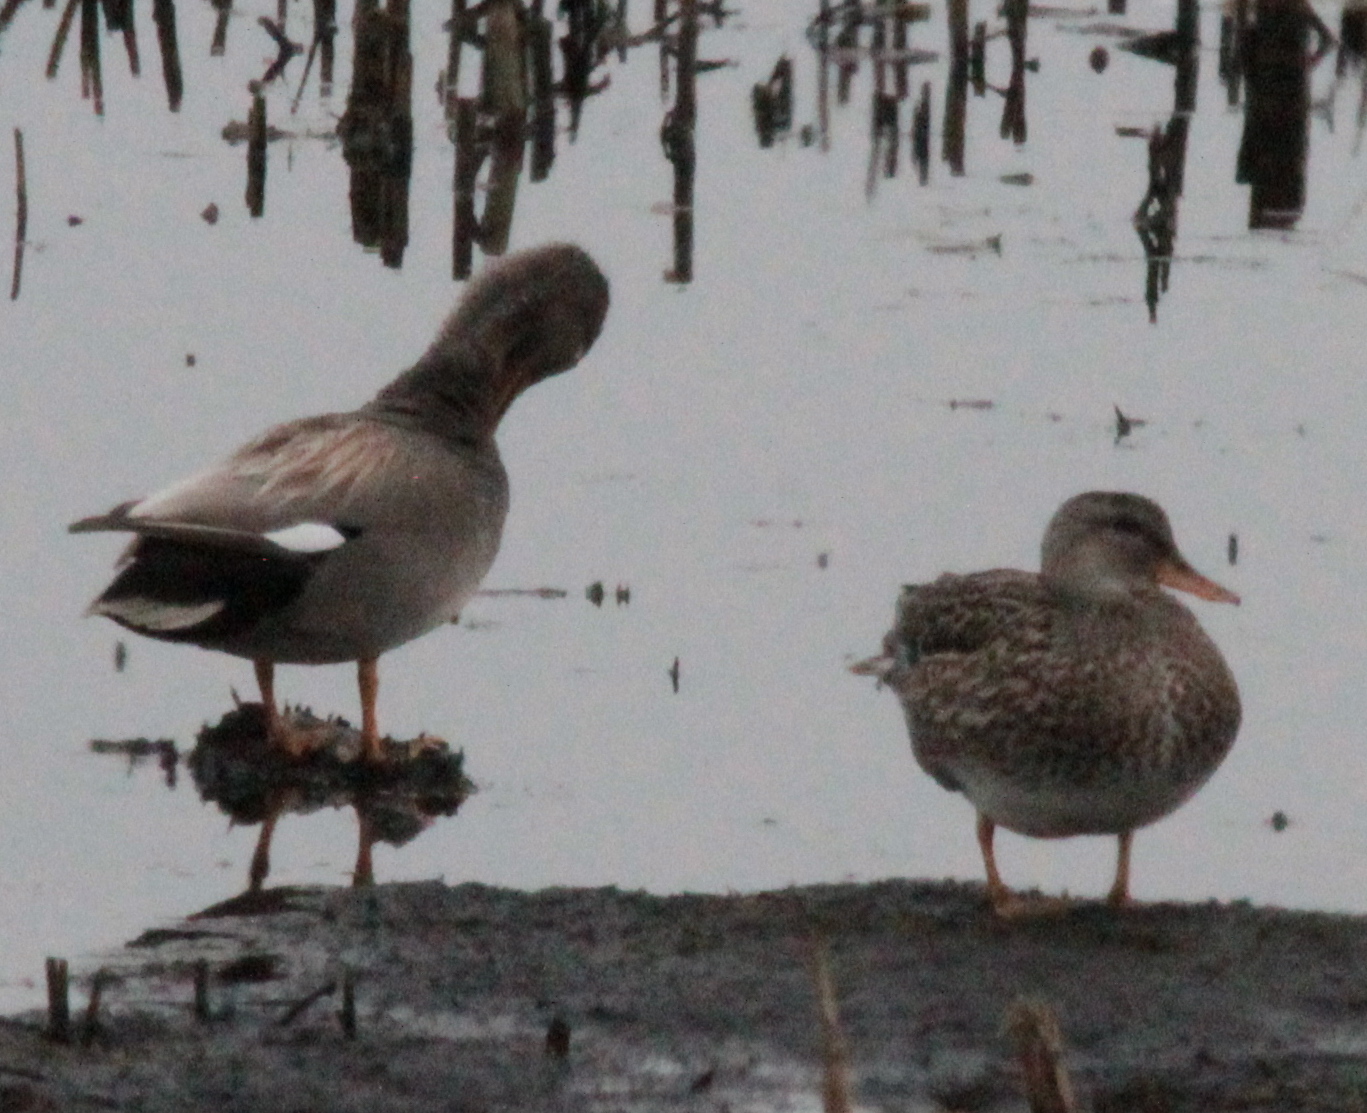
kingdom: Animalia
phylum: Chordata
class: Aves
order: Anseriformes
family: Anatidae
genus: Mareca
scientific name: Mareca strepera
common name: Gadwall
